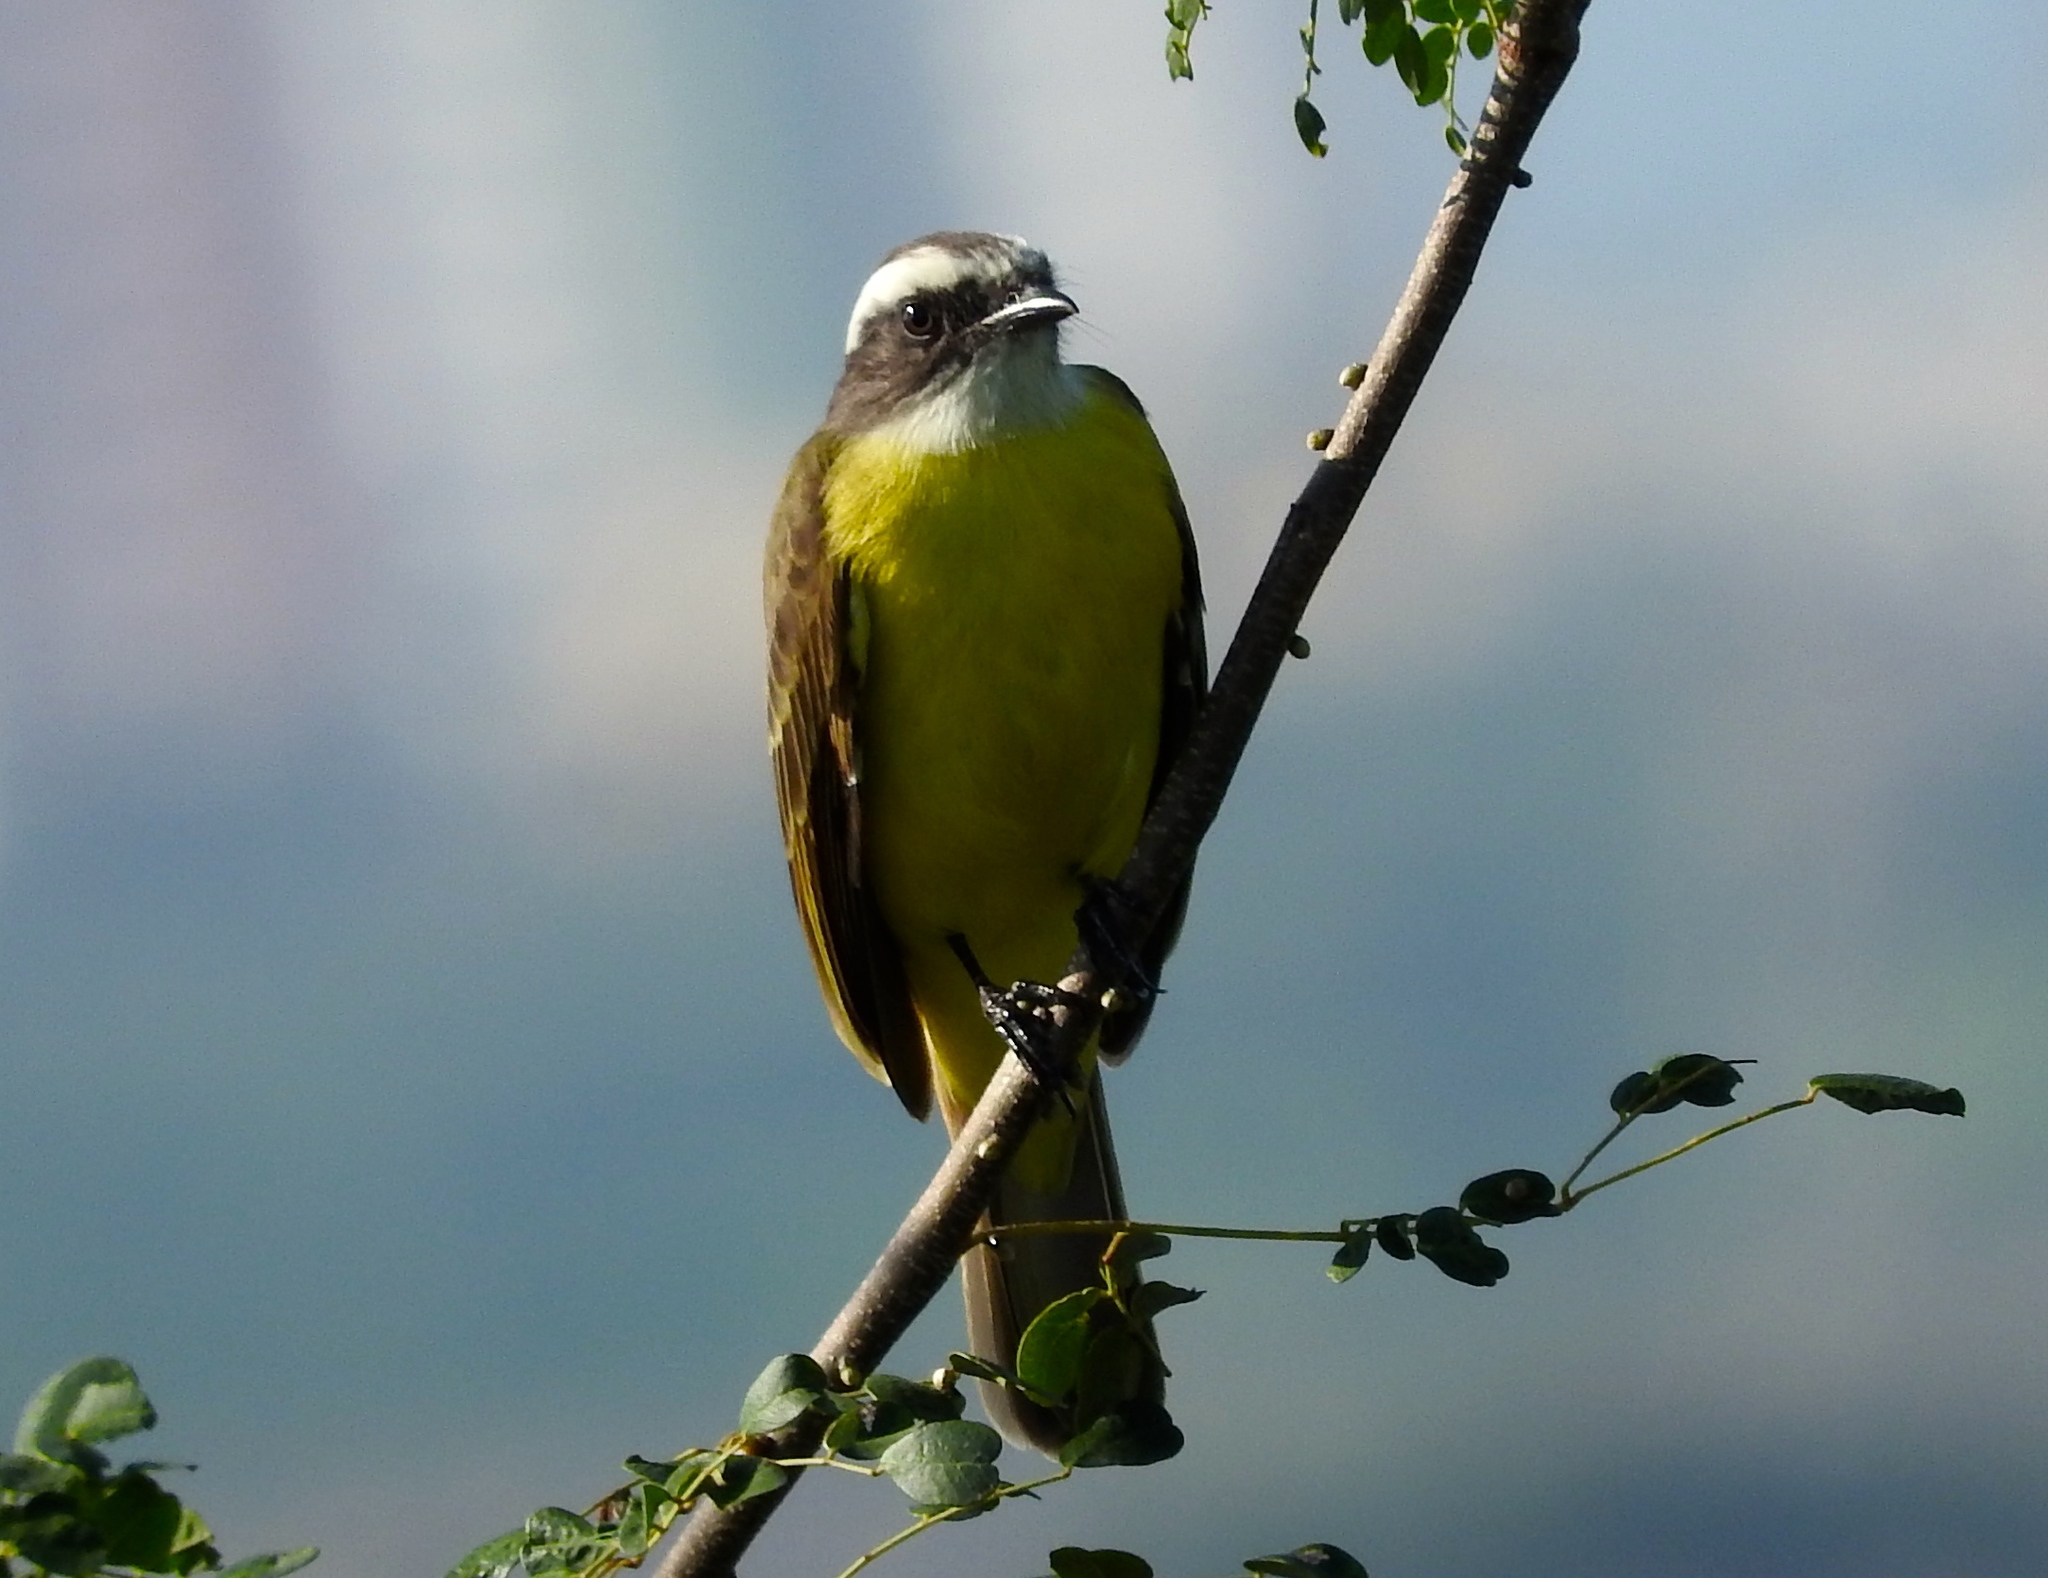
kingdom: Animalia
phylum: Chordata
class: Aves
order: Passeriformes
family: Tyrannidae
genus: Myiozetetes
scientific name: Myiozetetes similis
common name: Social flycatcher
